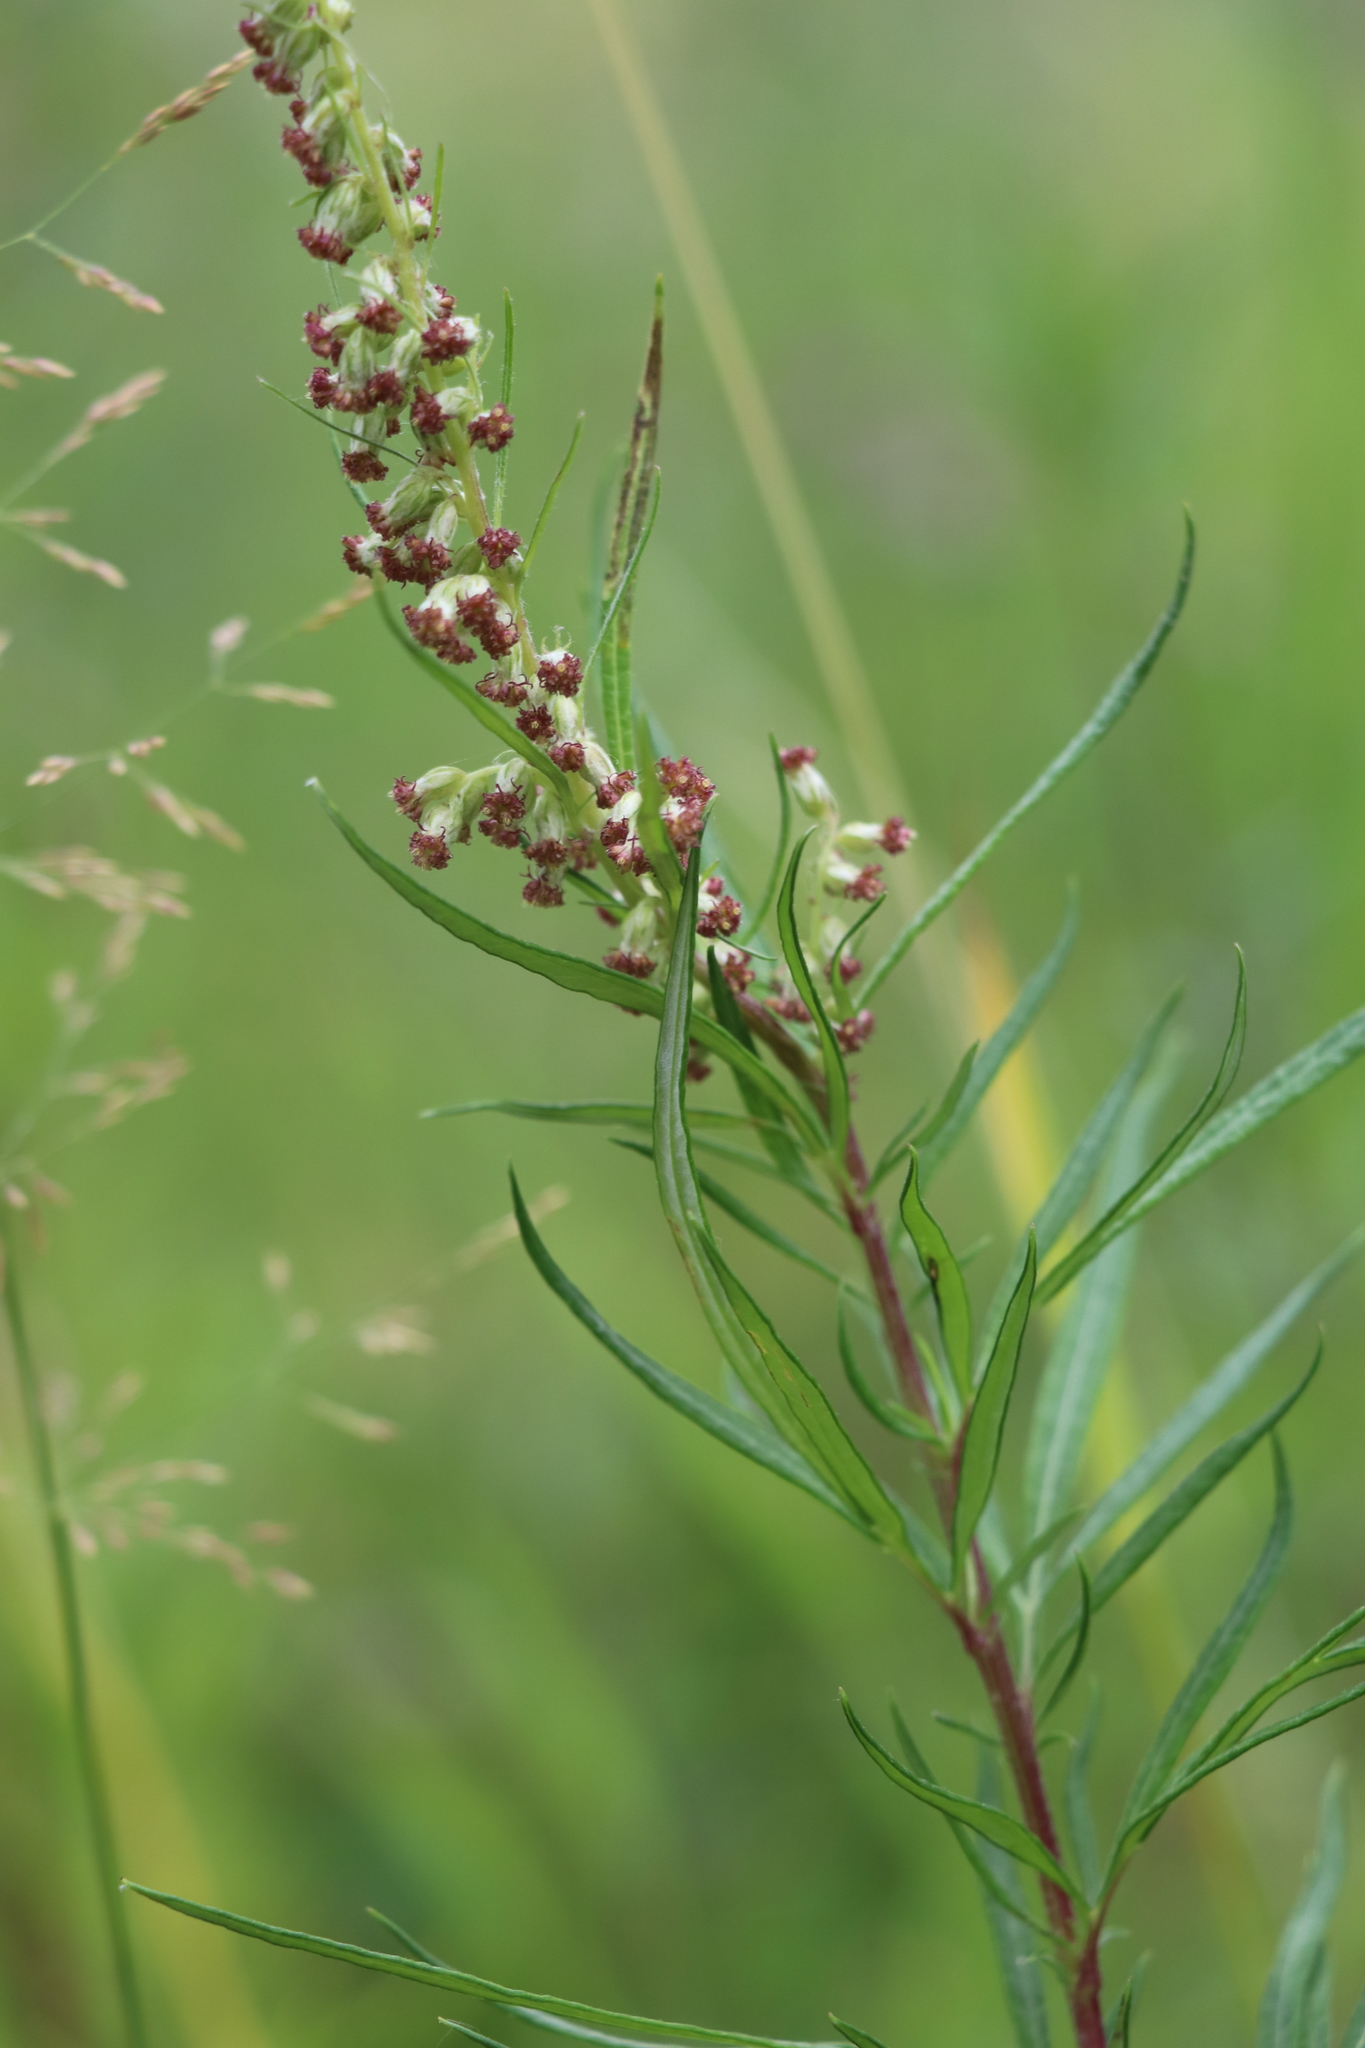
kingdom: Plantae
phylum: Tracheophyta
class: Magnoliopsida
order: Asterales
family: Asteraceae
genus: Artemisia
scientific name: Artemisia vulgaris
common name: Mugwort
